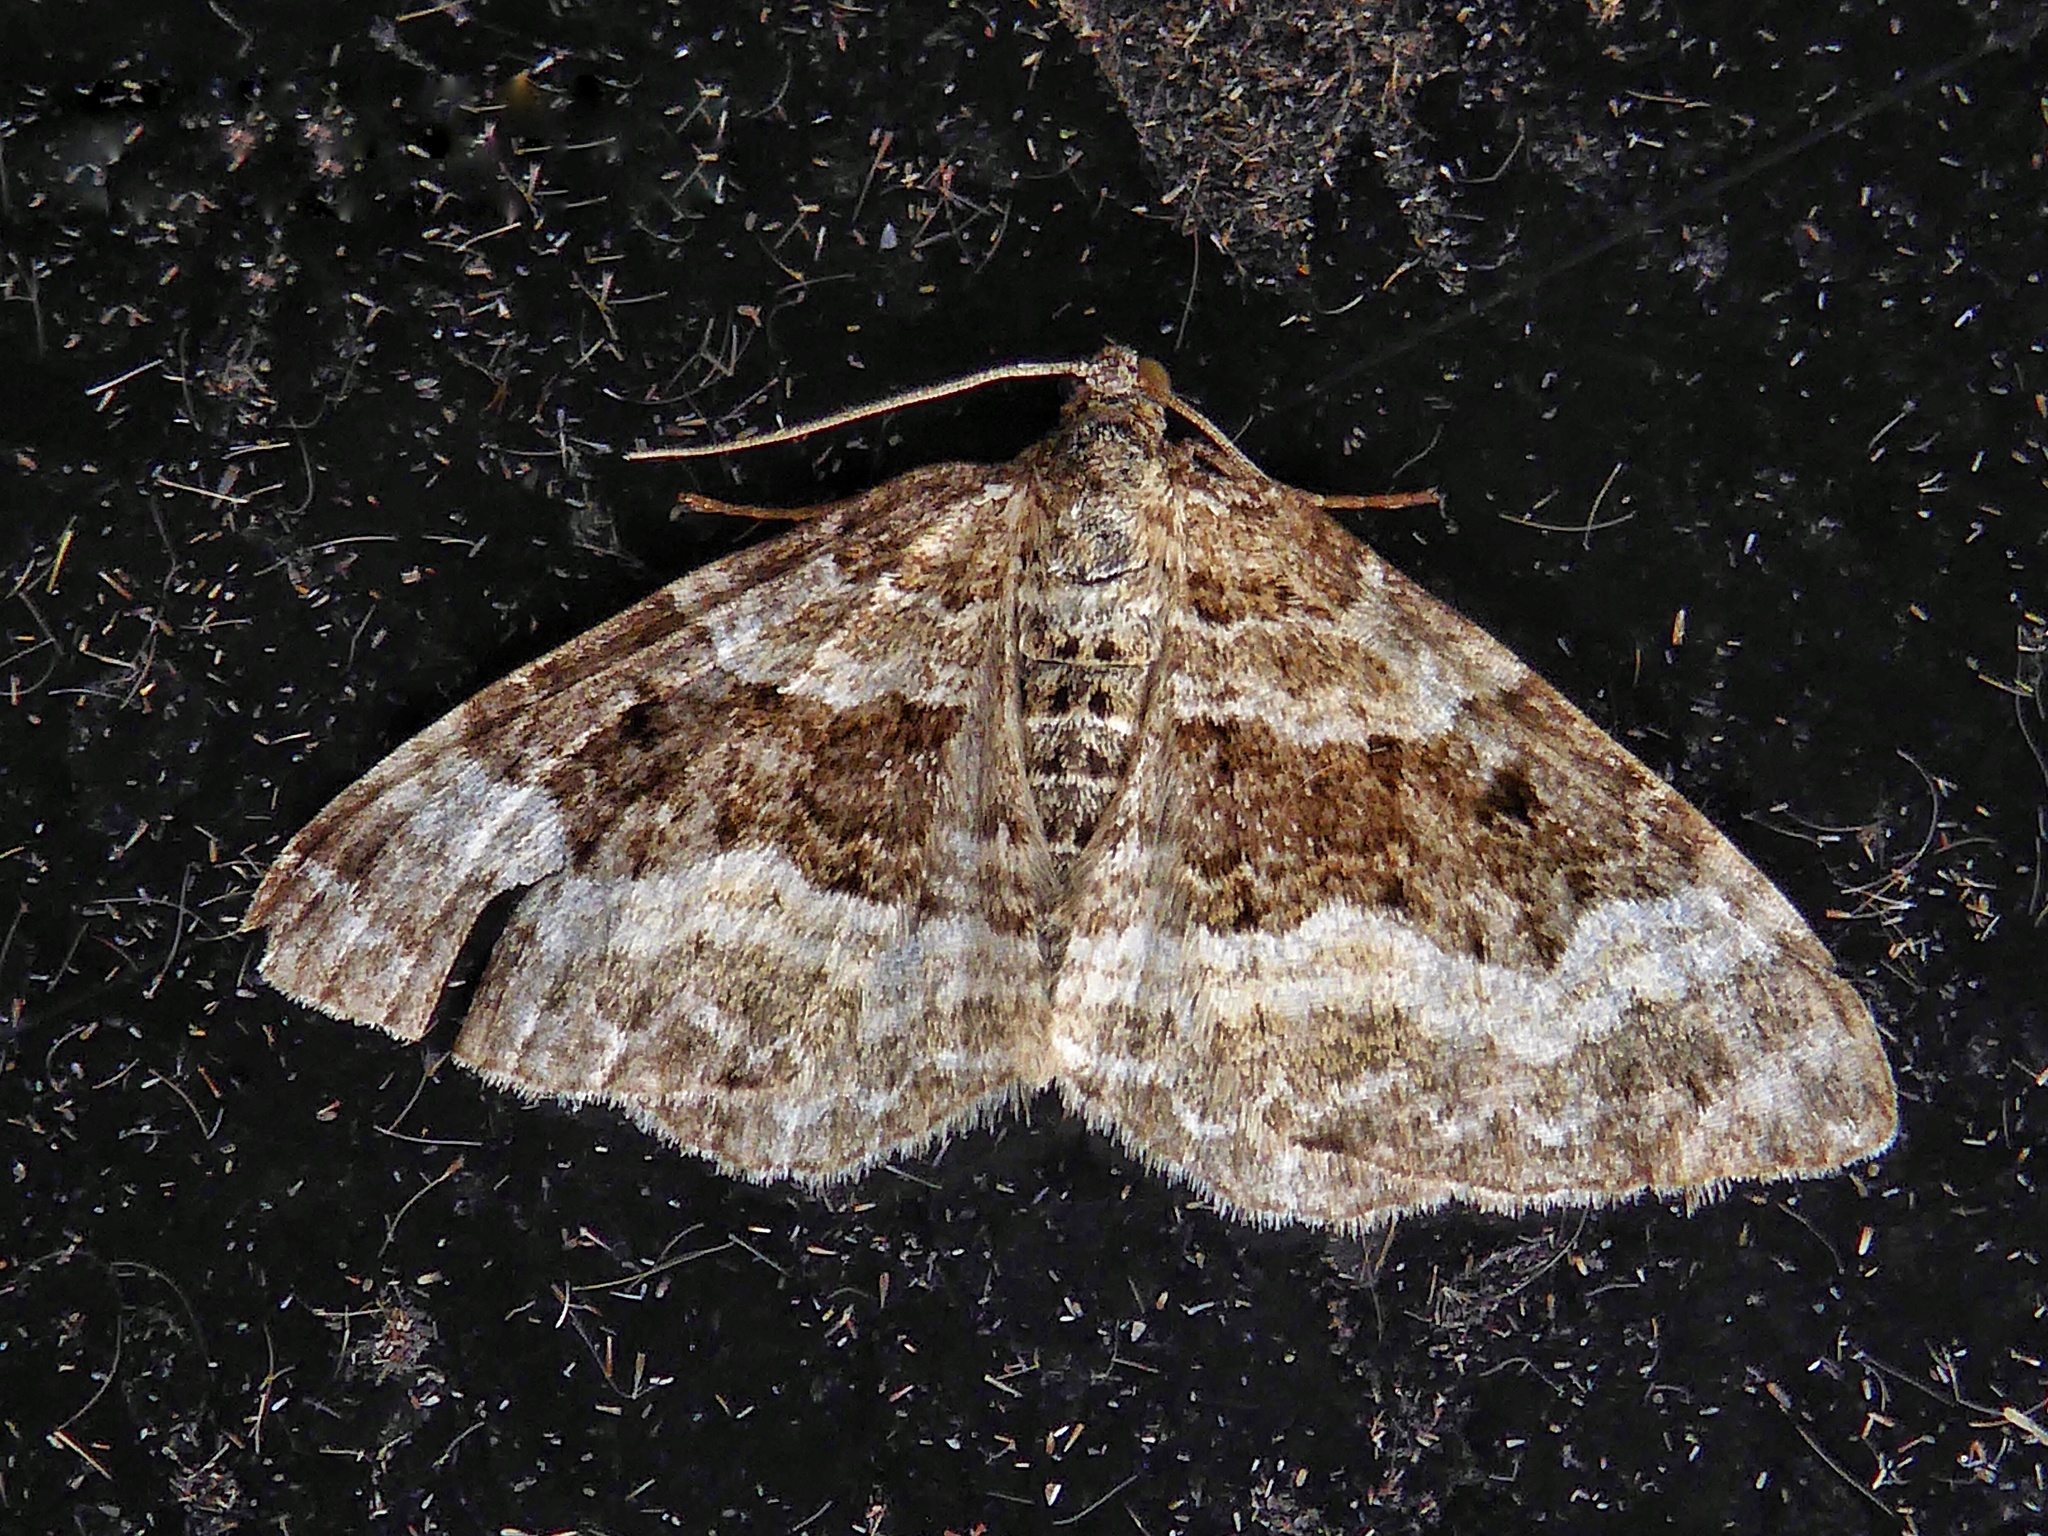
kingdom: Animalia
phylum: Arthropoda
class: Insecta
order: Lepidoptera
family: Geometridae
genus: Epirrhoe
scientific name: Epirrhoe alternata
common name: Common carpet
